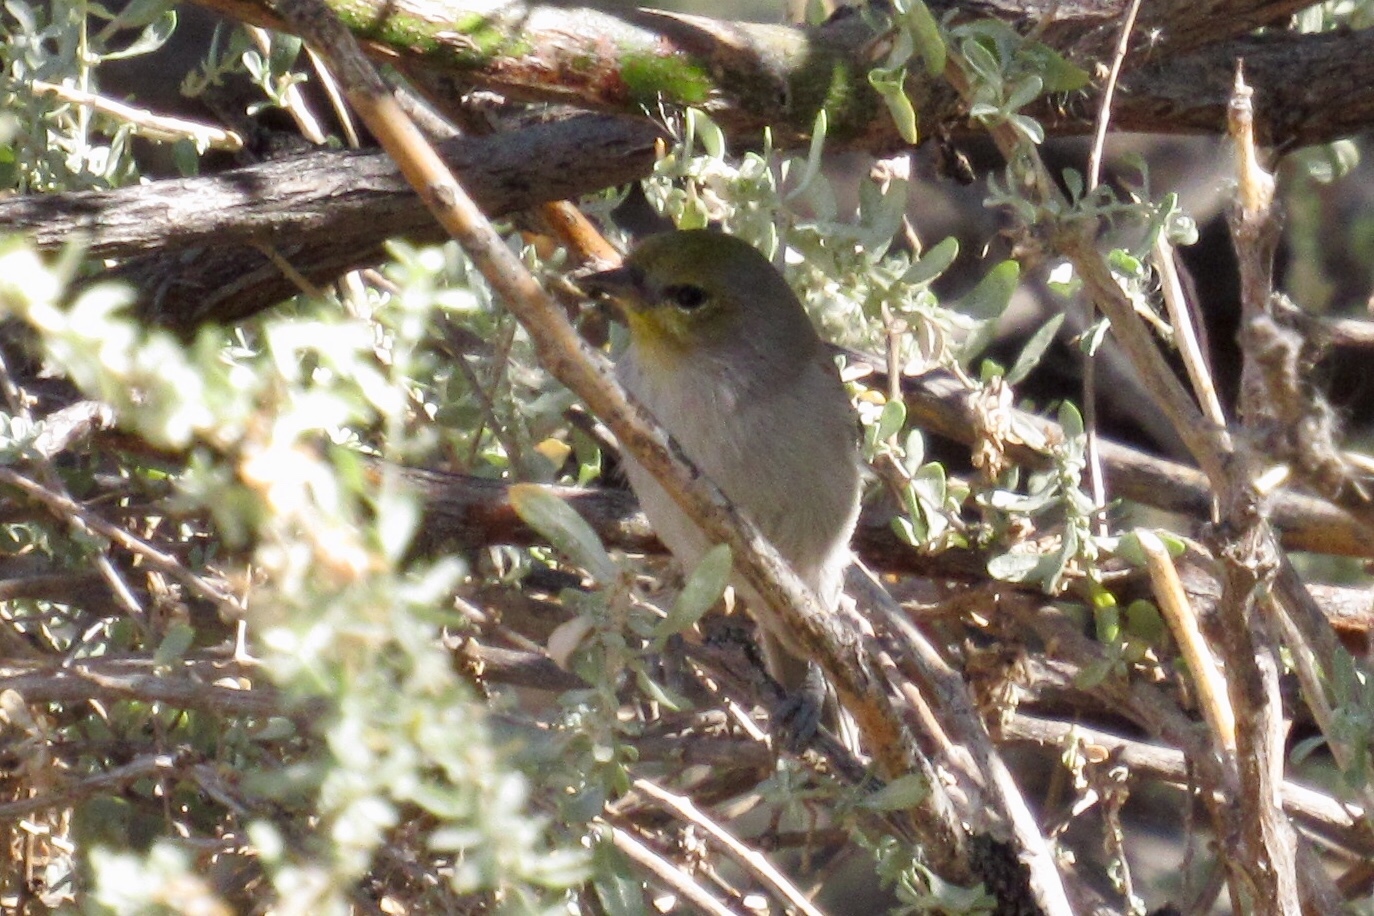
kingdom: Animalia
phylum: Chordata
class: Aves
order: Passeriformes
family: Remizidae
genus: Auriparus
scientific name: Auriparus flaviceps
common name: Verdin
